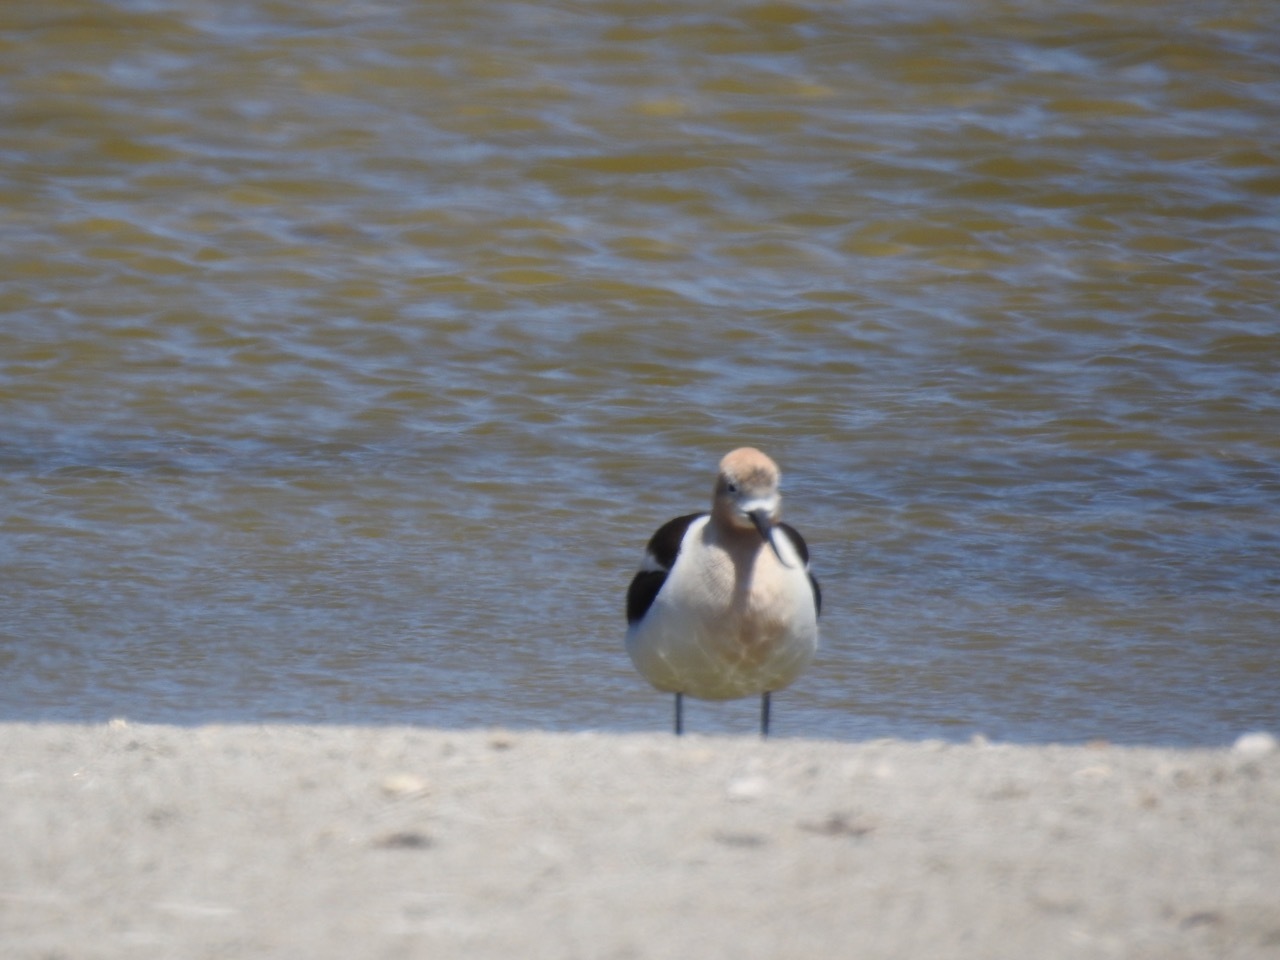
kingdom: Animalia
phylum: Chordata
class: Aves
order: Charadriiformes
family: Recurvirostridae
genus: Recurvirostra
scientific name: Recurvirostra americana
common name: American avocet
